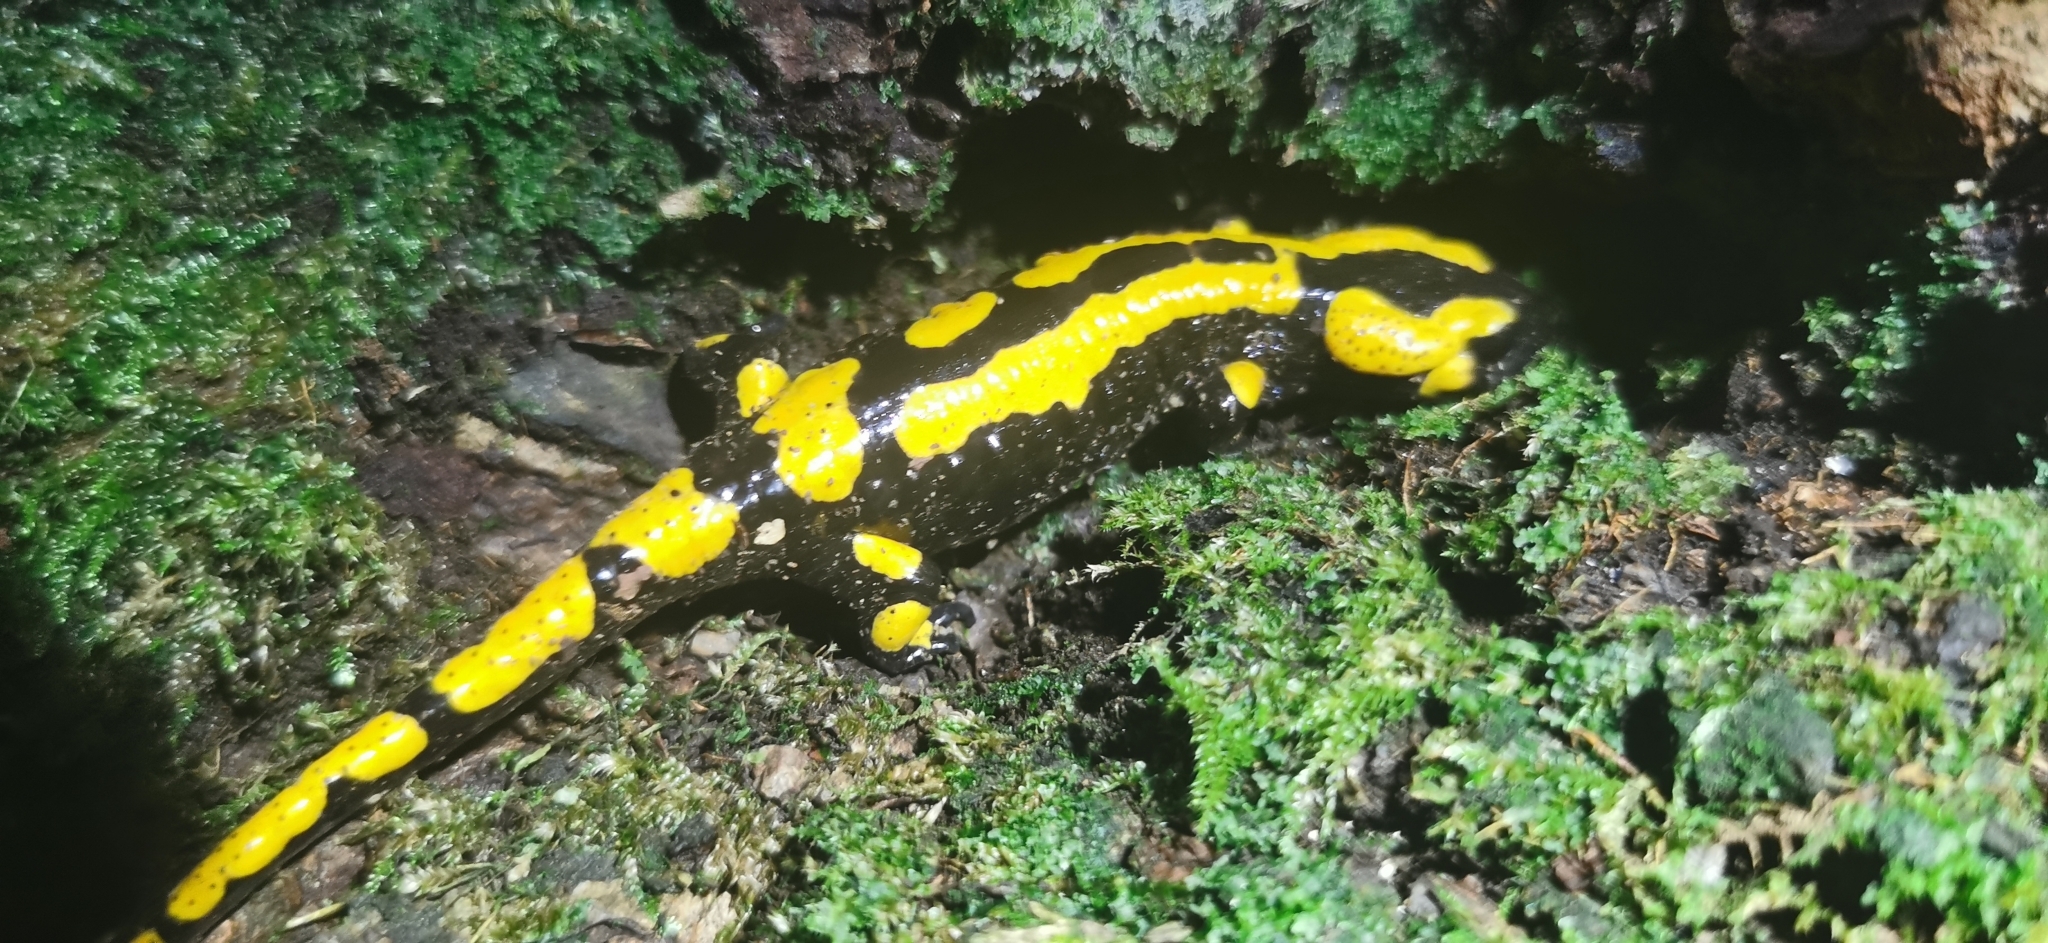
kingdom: Animalia
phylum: Chordata
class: Amphibia
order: Caudata
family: Salamandridae
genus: Salamandra
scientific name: Salamandra salamandra
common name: Fire salamander
